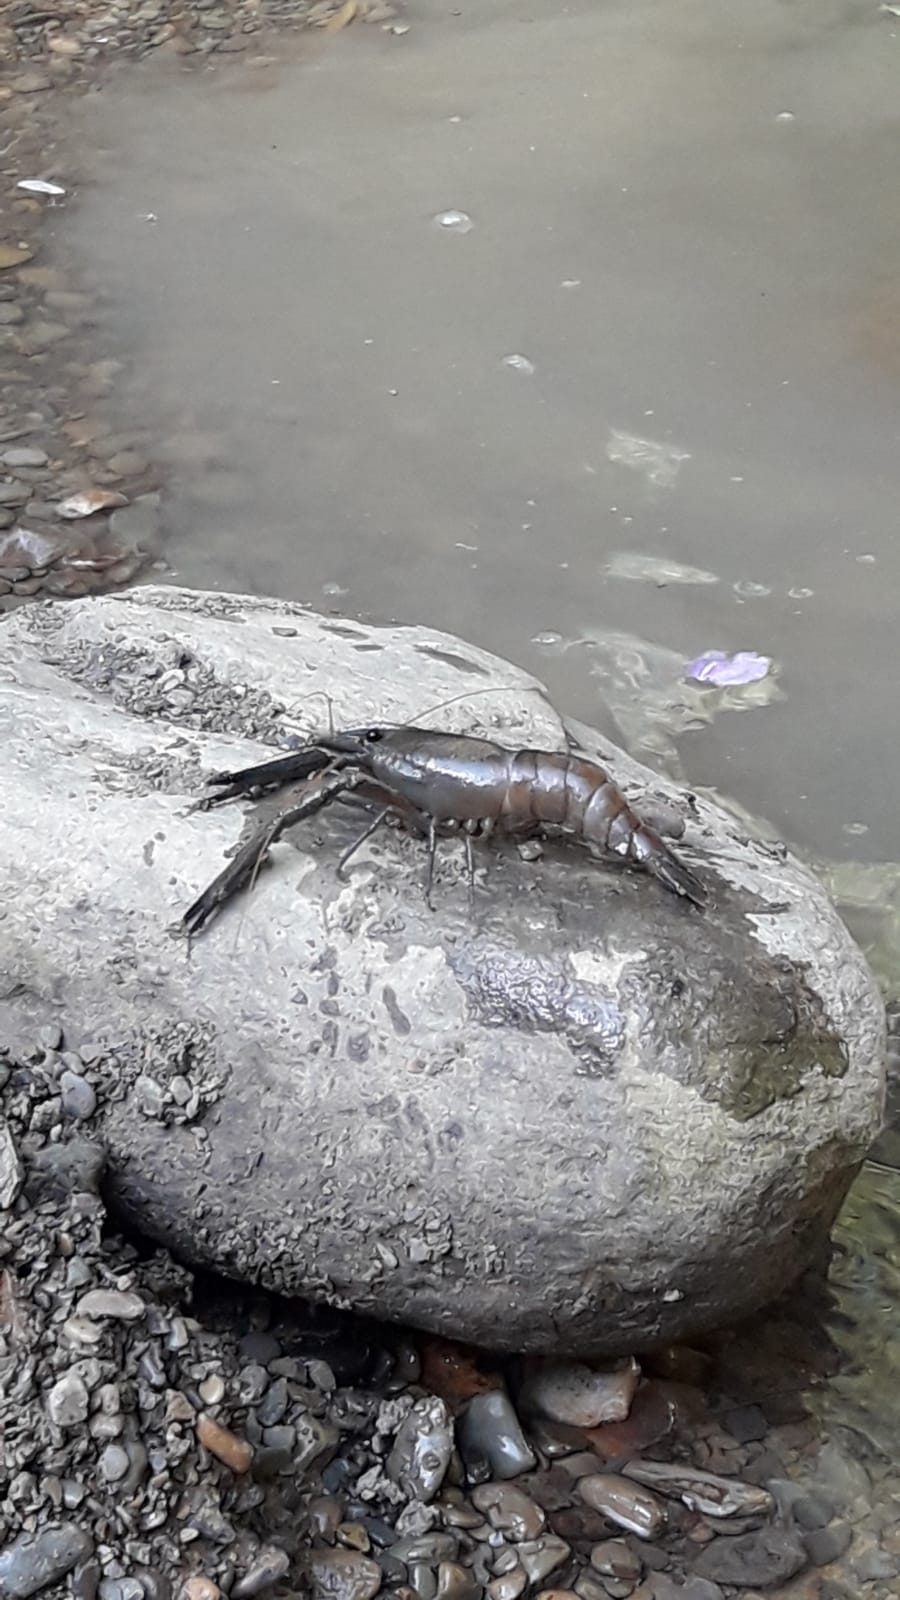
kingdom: Animalia
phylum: Arthropoda
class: Malacostraca
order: Decapoda
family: Palaemonidae
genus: Macrobrachium
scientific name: Macrobrachium brasiliense
